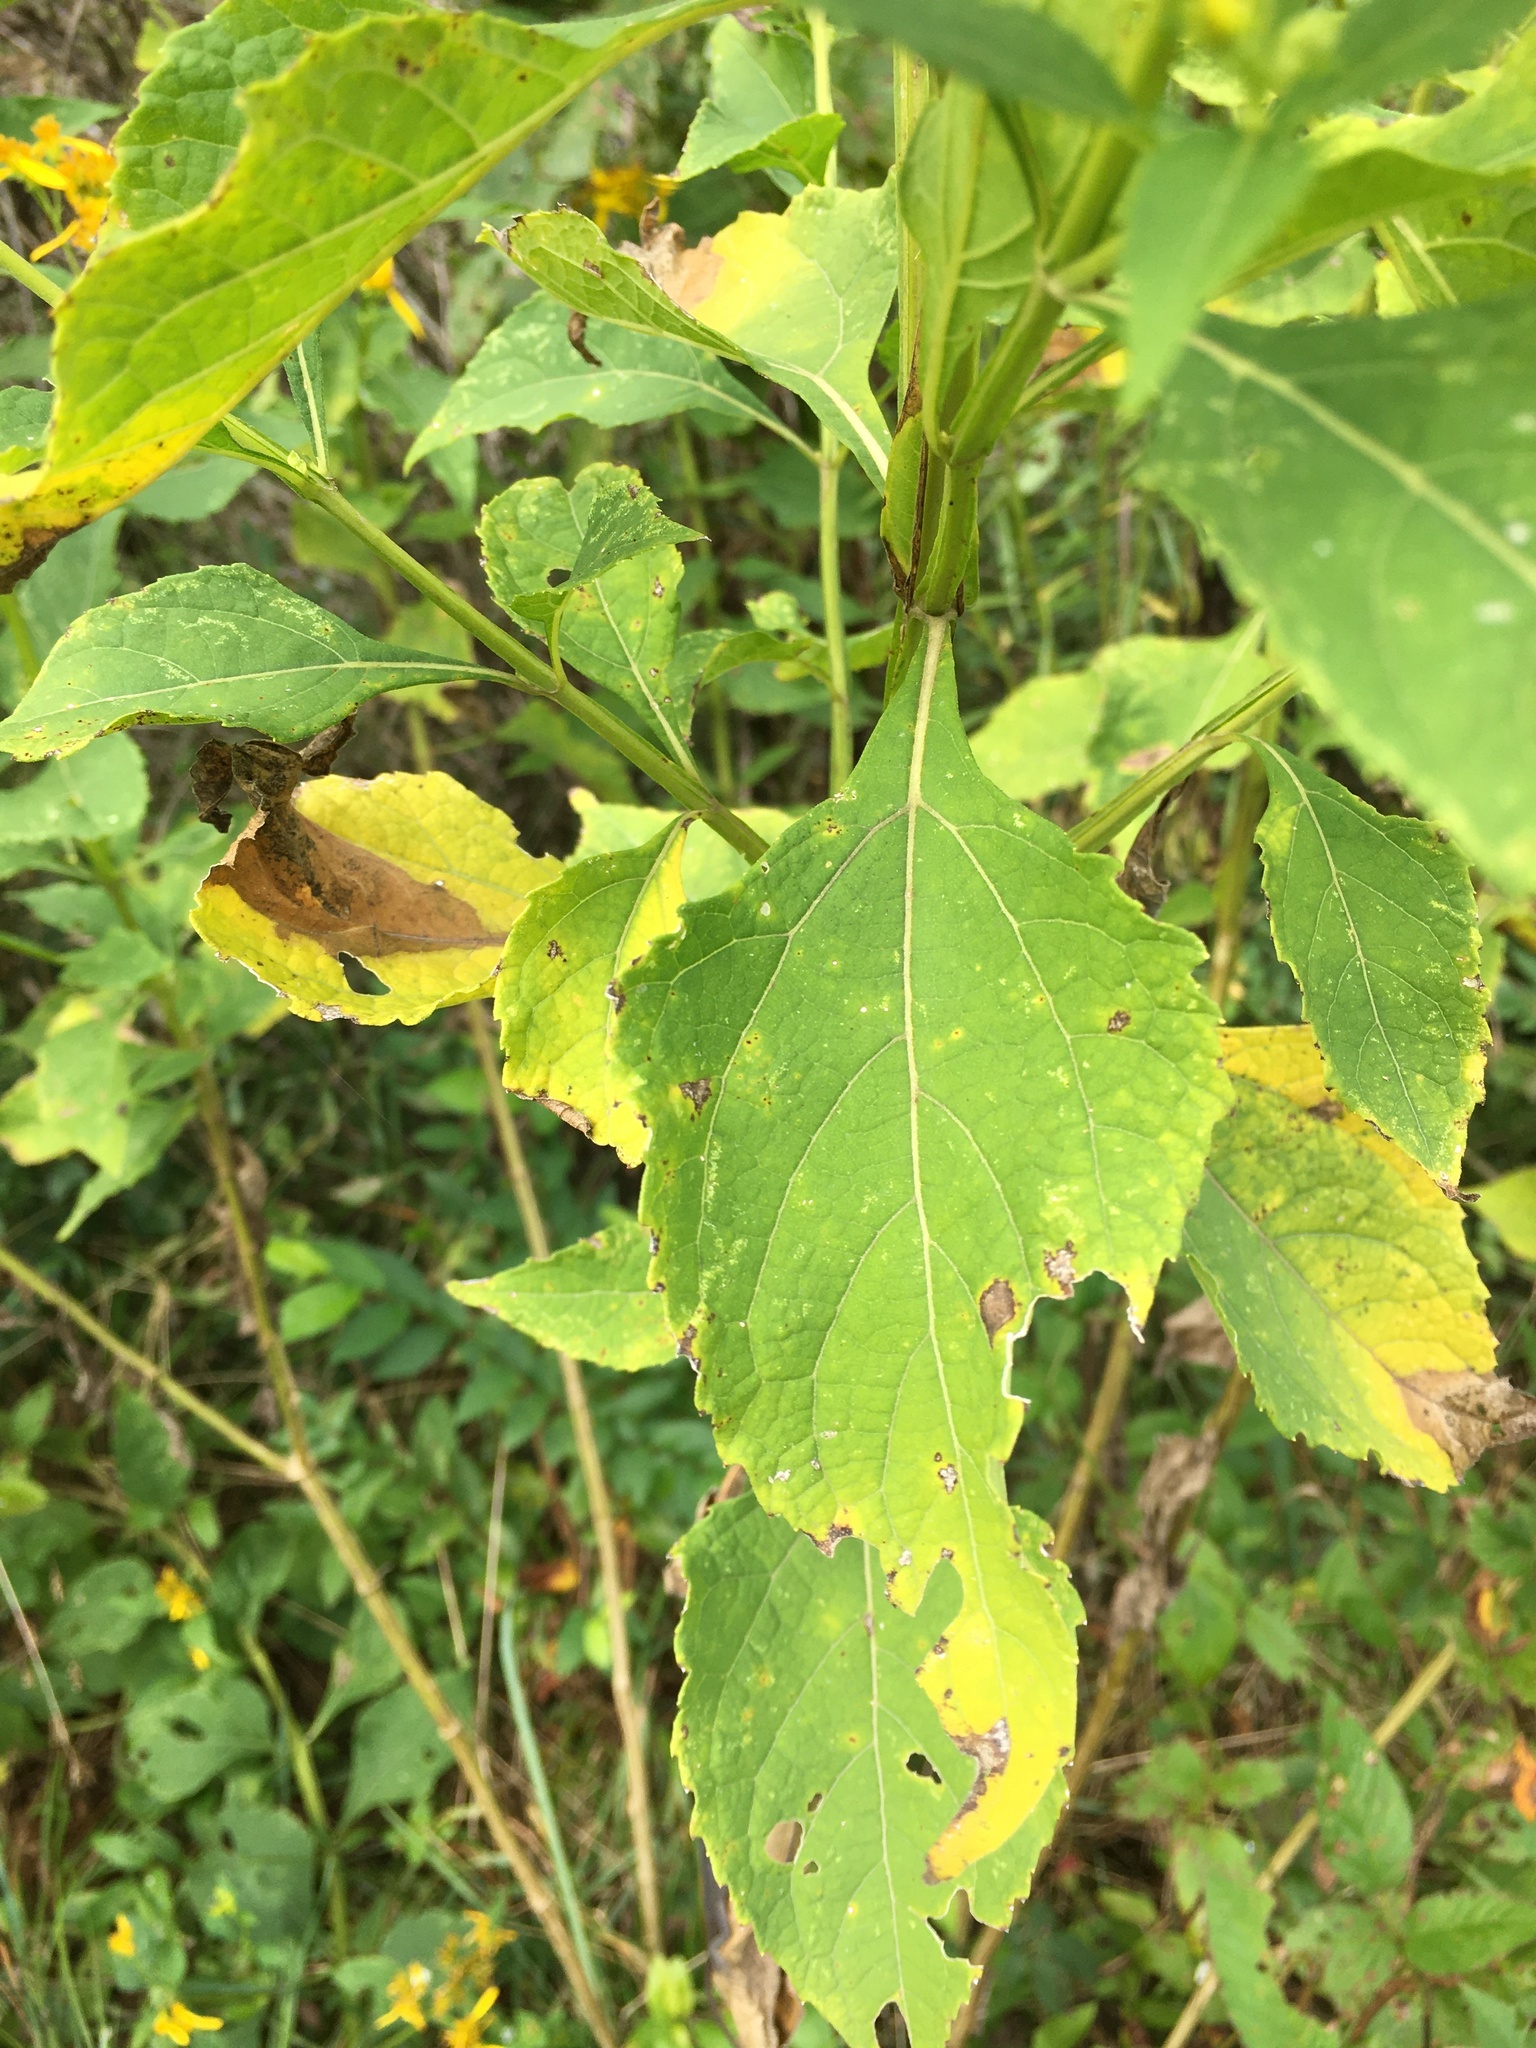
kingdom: Plantae
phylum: Tracheophyta
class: Magnoliopsida
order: Asterales
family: Asteraceae
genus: Verbesina
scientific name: Verbesina occidentalis
